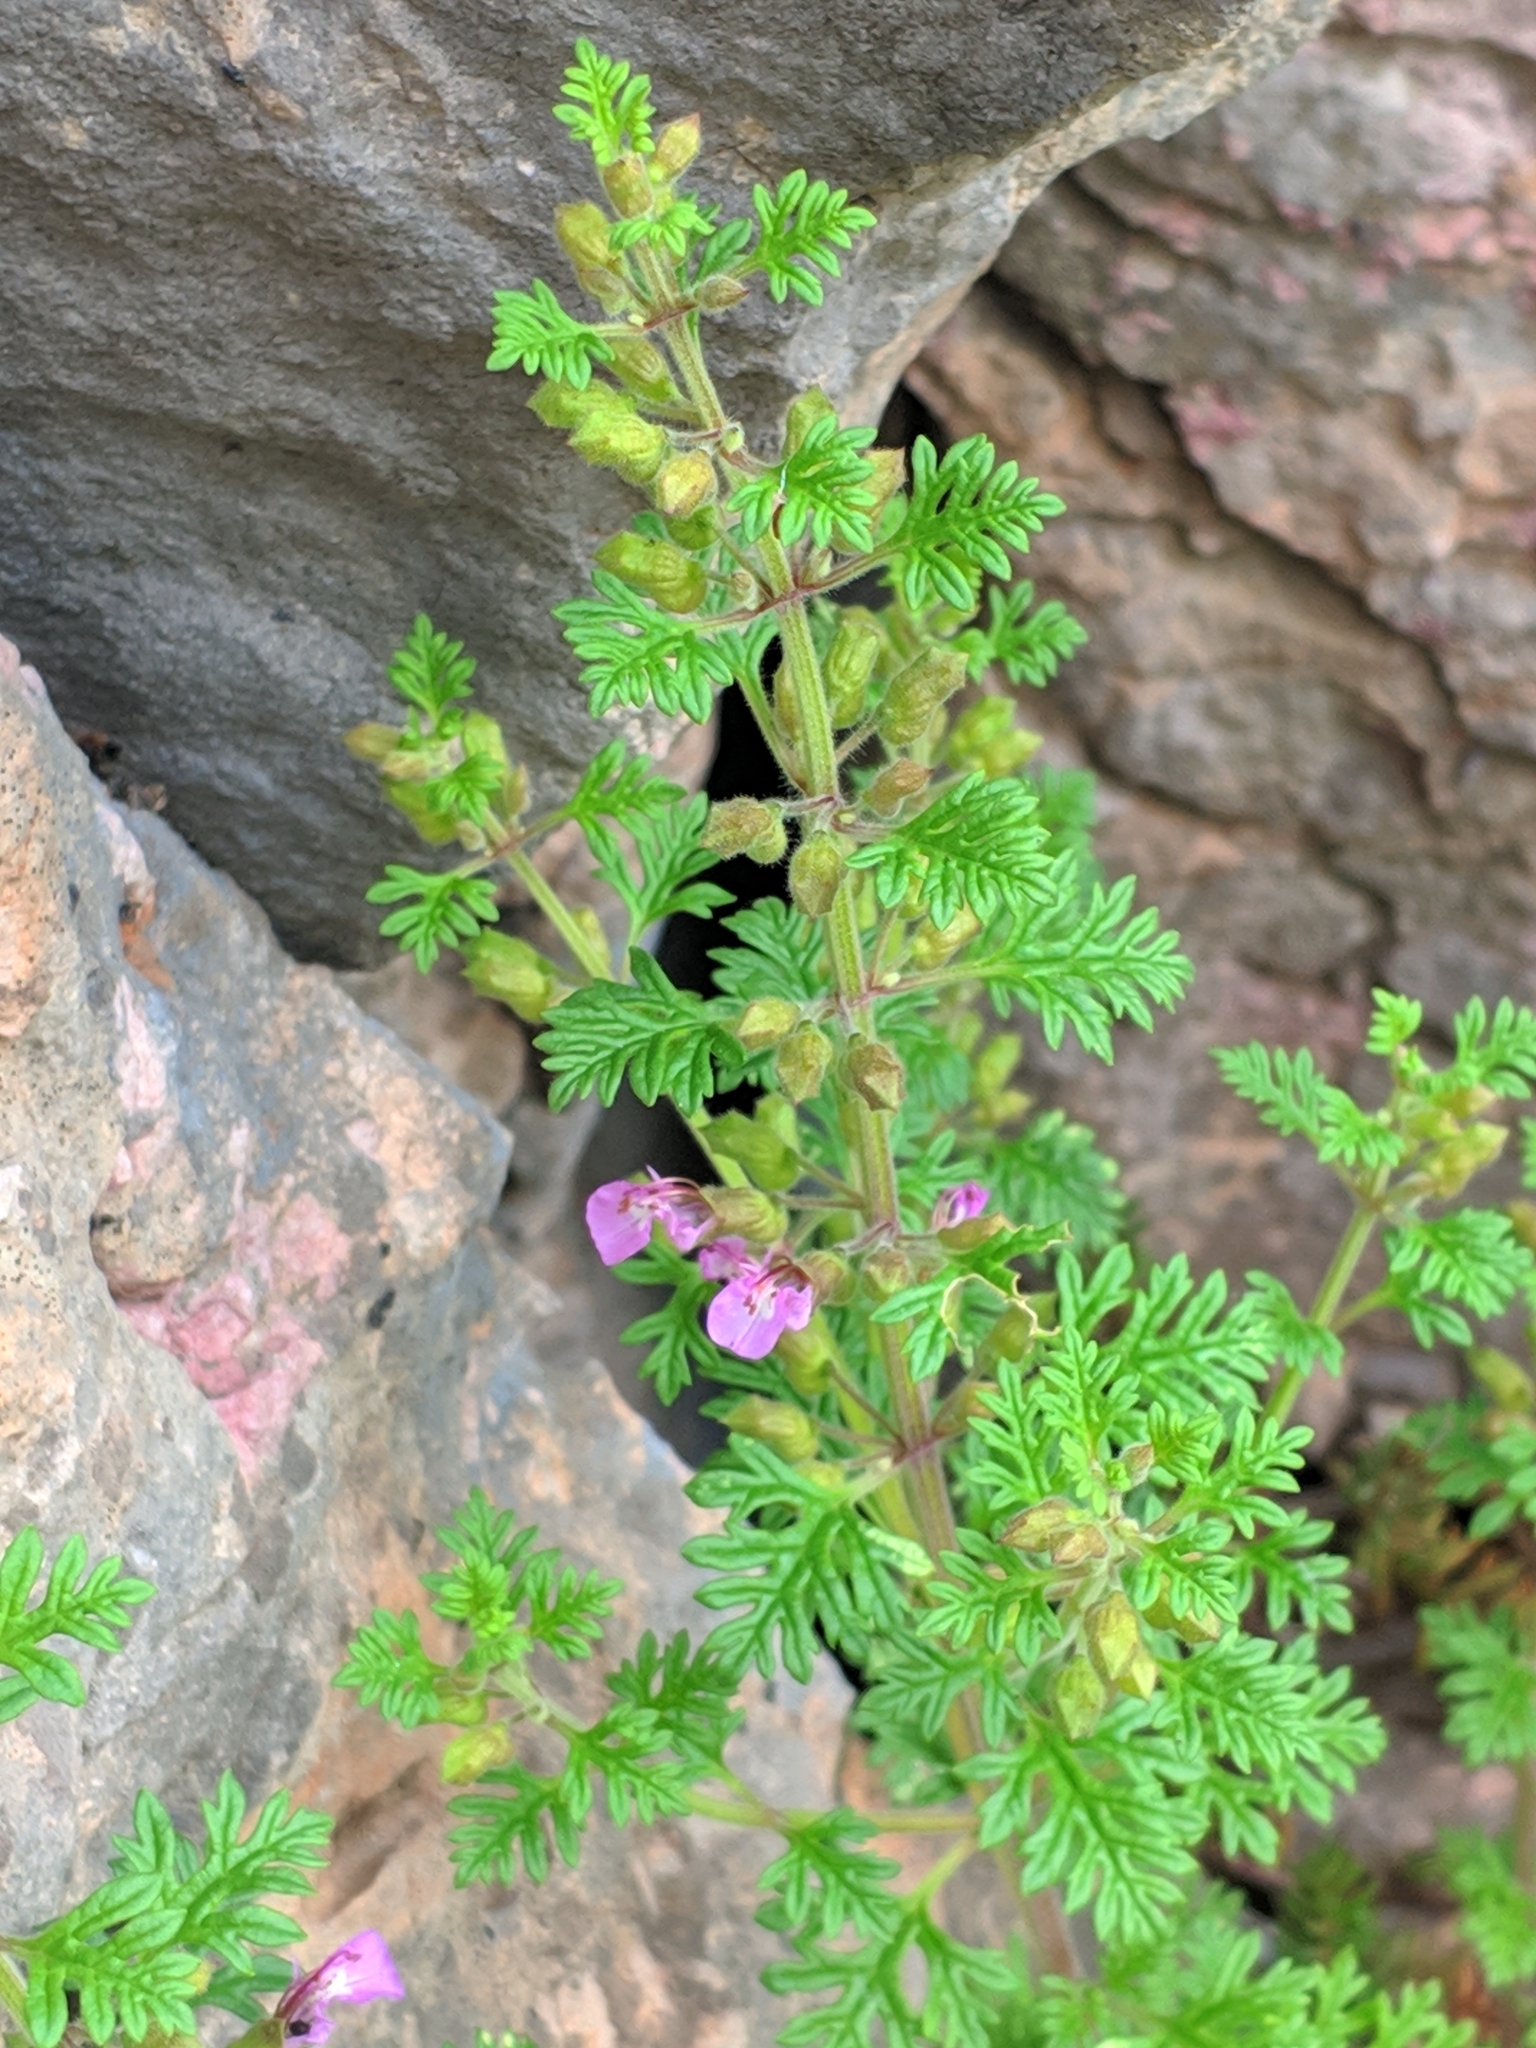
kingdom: Plantae
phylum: Tracheophyta
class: Magnoliopsida
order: Lamiales
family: Lamiaceae
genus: Teucrium
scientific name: Teucrium botrys
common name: Cut-leaved germander
